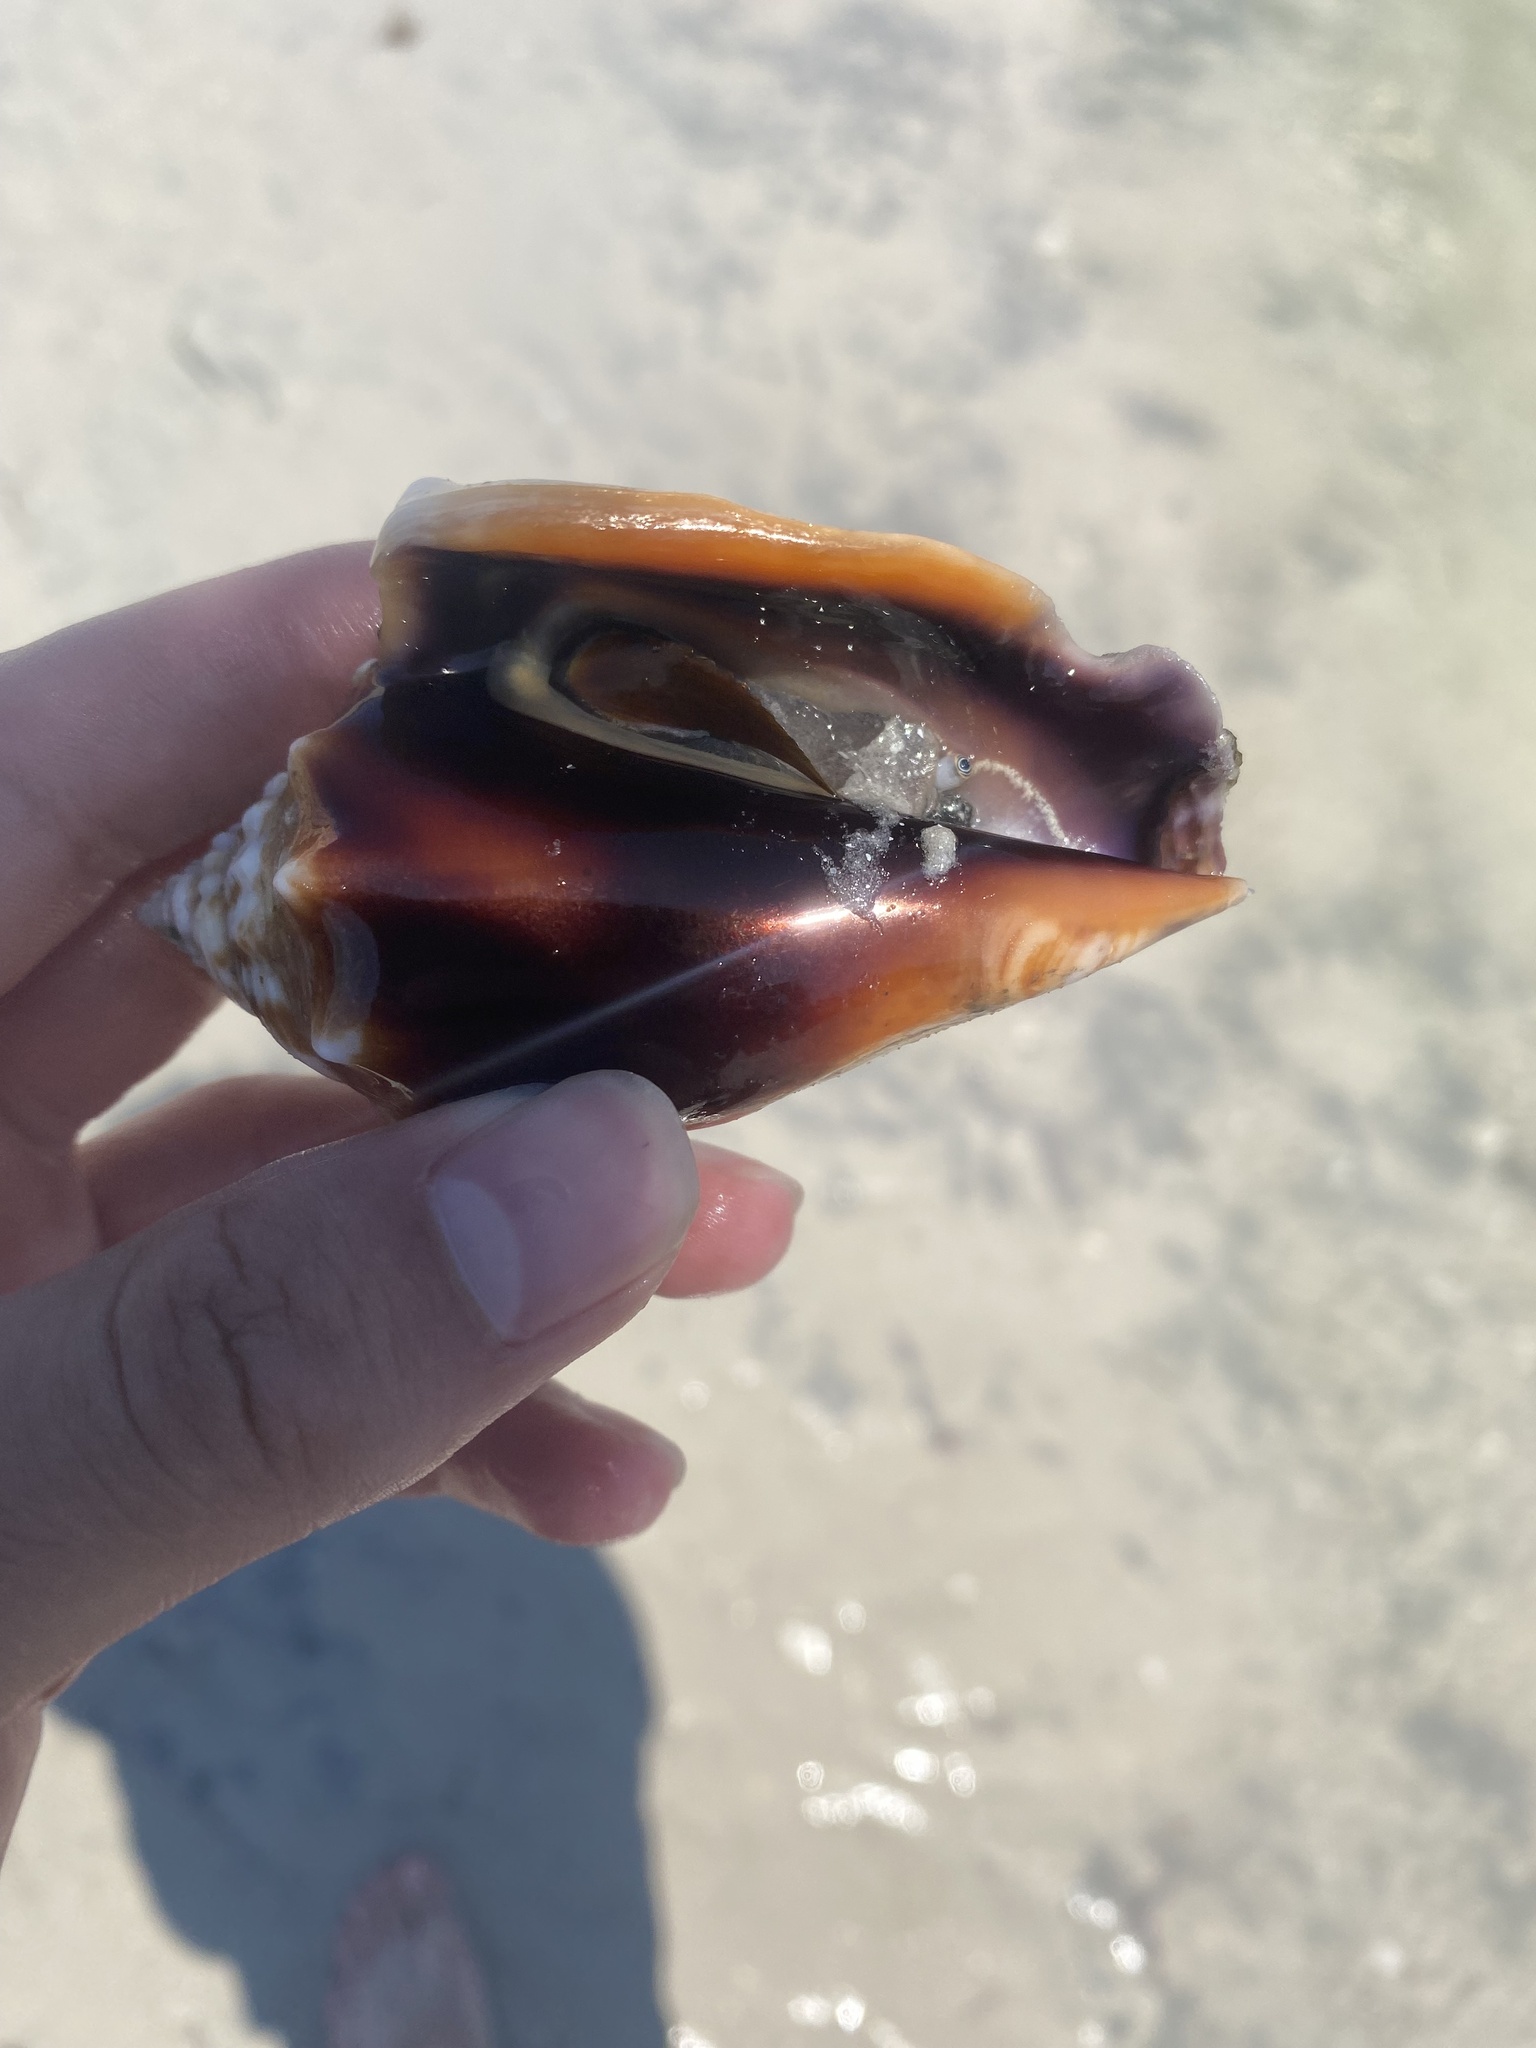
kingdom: Animalia
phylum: Mollusca
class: Gastropoda
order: Littorinimorpha
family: Strombidae
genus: Strombus
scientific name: Strombus alatus
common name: Florida fighting conch
